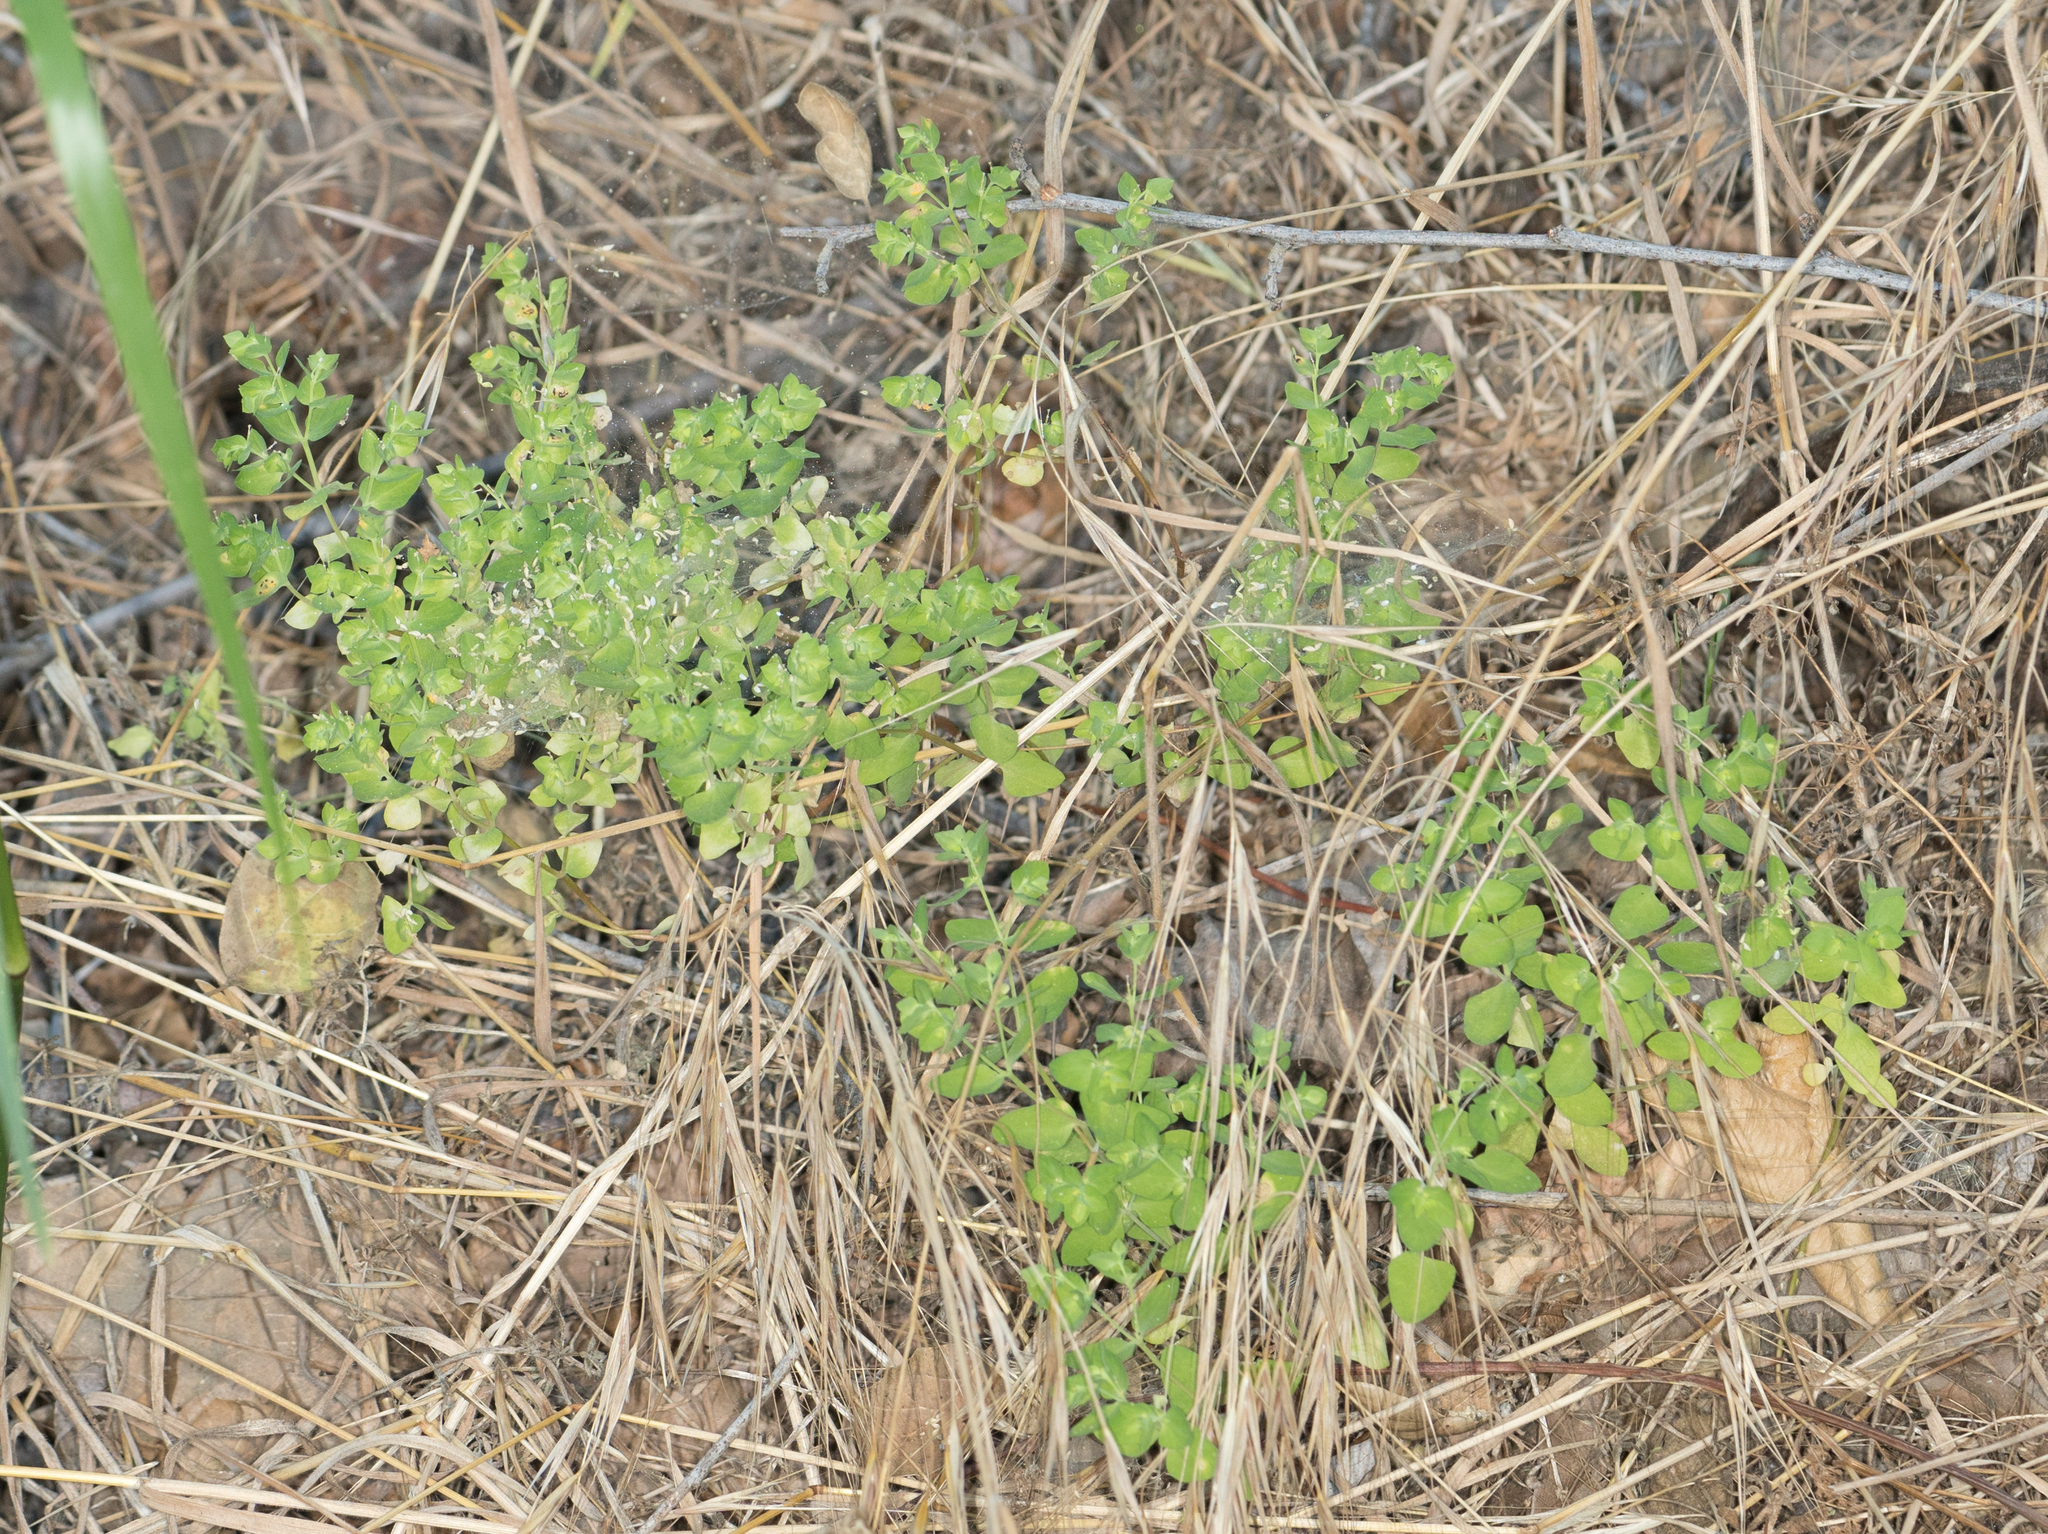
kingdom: Plantae
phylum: Tracheophyta
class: Magnoliopsida
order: Malpighiales
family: Euphorbiaceae
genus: Euphorbia
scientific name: Euphorbia peplus
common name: Petty spurge
